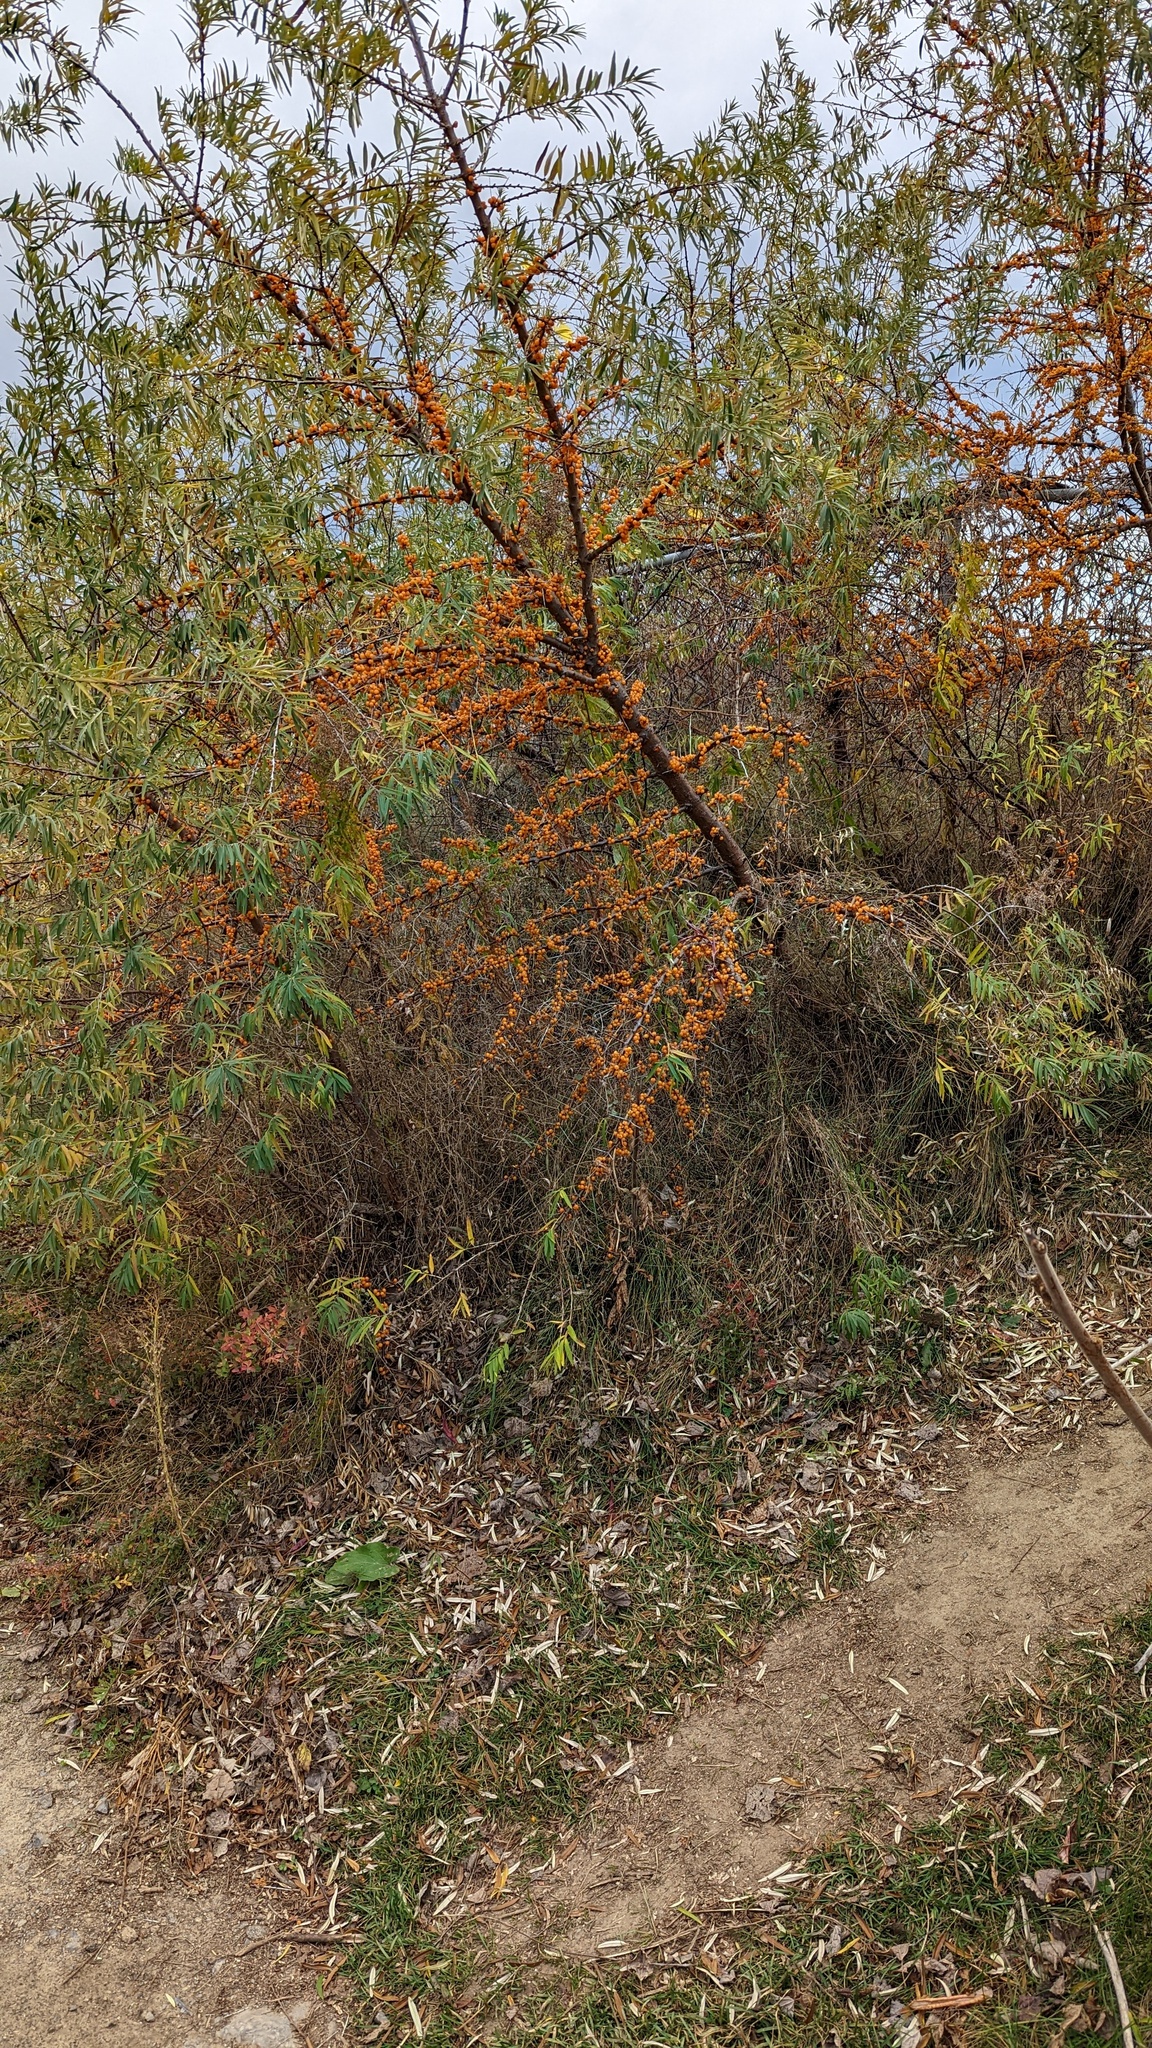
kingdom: Plantae
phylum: Tracheophyta
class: Magnoliopsida
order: Rosales
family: Elaeagnaceae
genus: Hippophae
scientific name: Hippophae rhamnoides
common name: Sea-buckthorn
